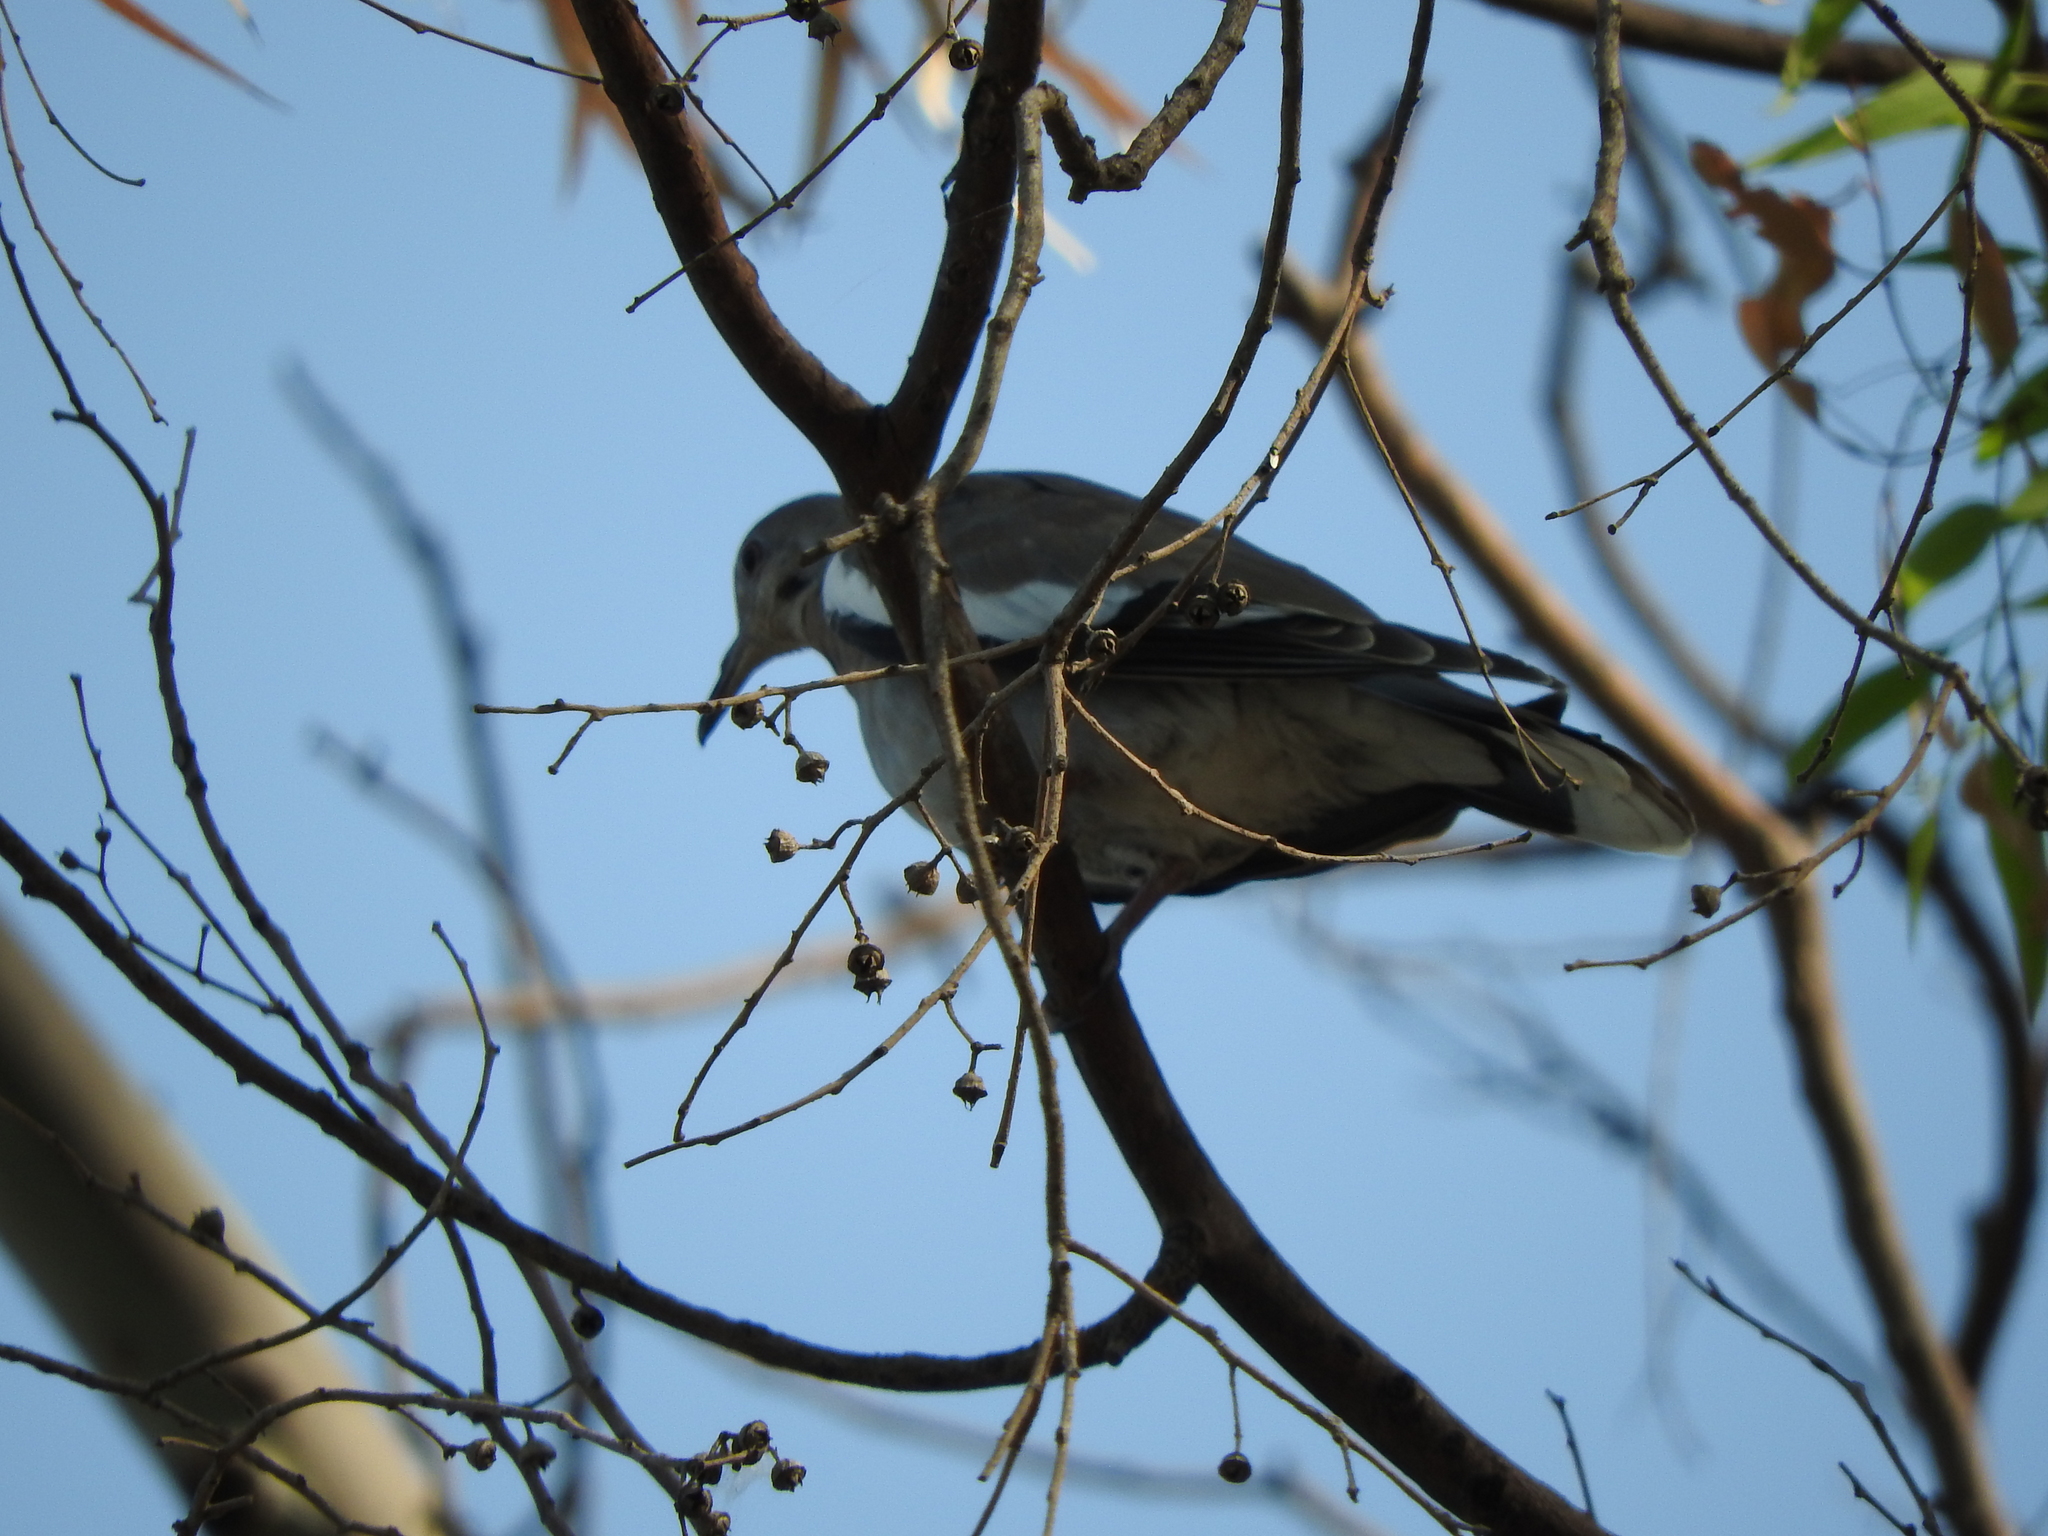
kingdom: Animalia
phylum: Chordata
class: Aves
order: Columbiformes
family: Columbidae
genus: Zenaida
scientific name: Zenaida asiatica
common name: White-winged dove
